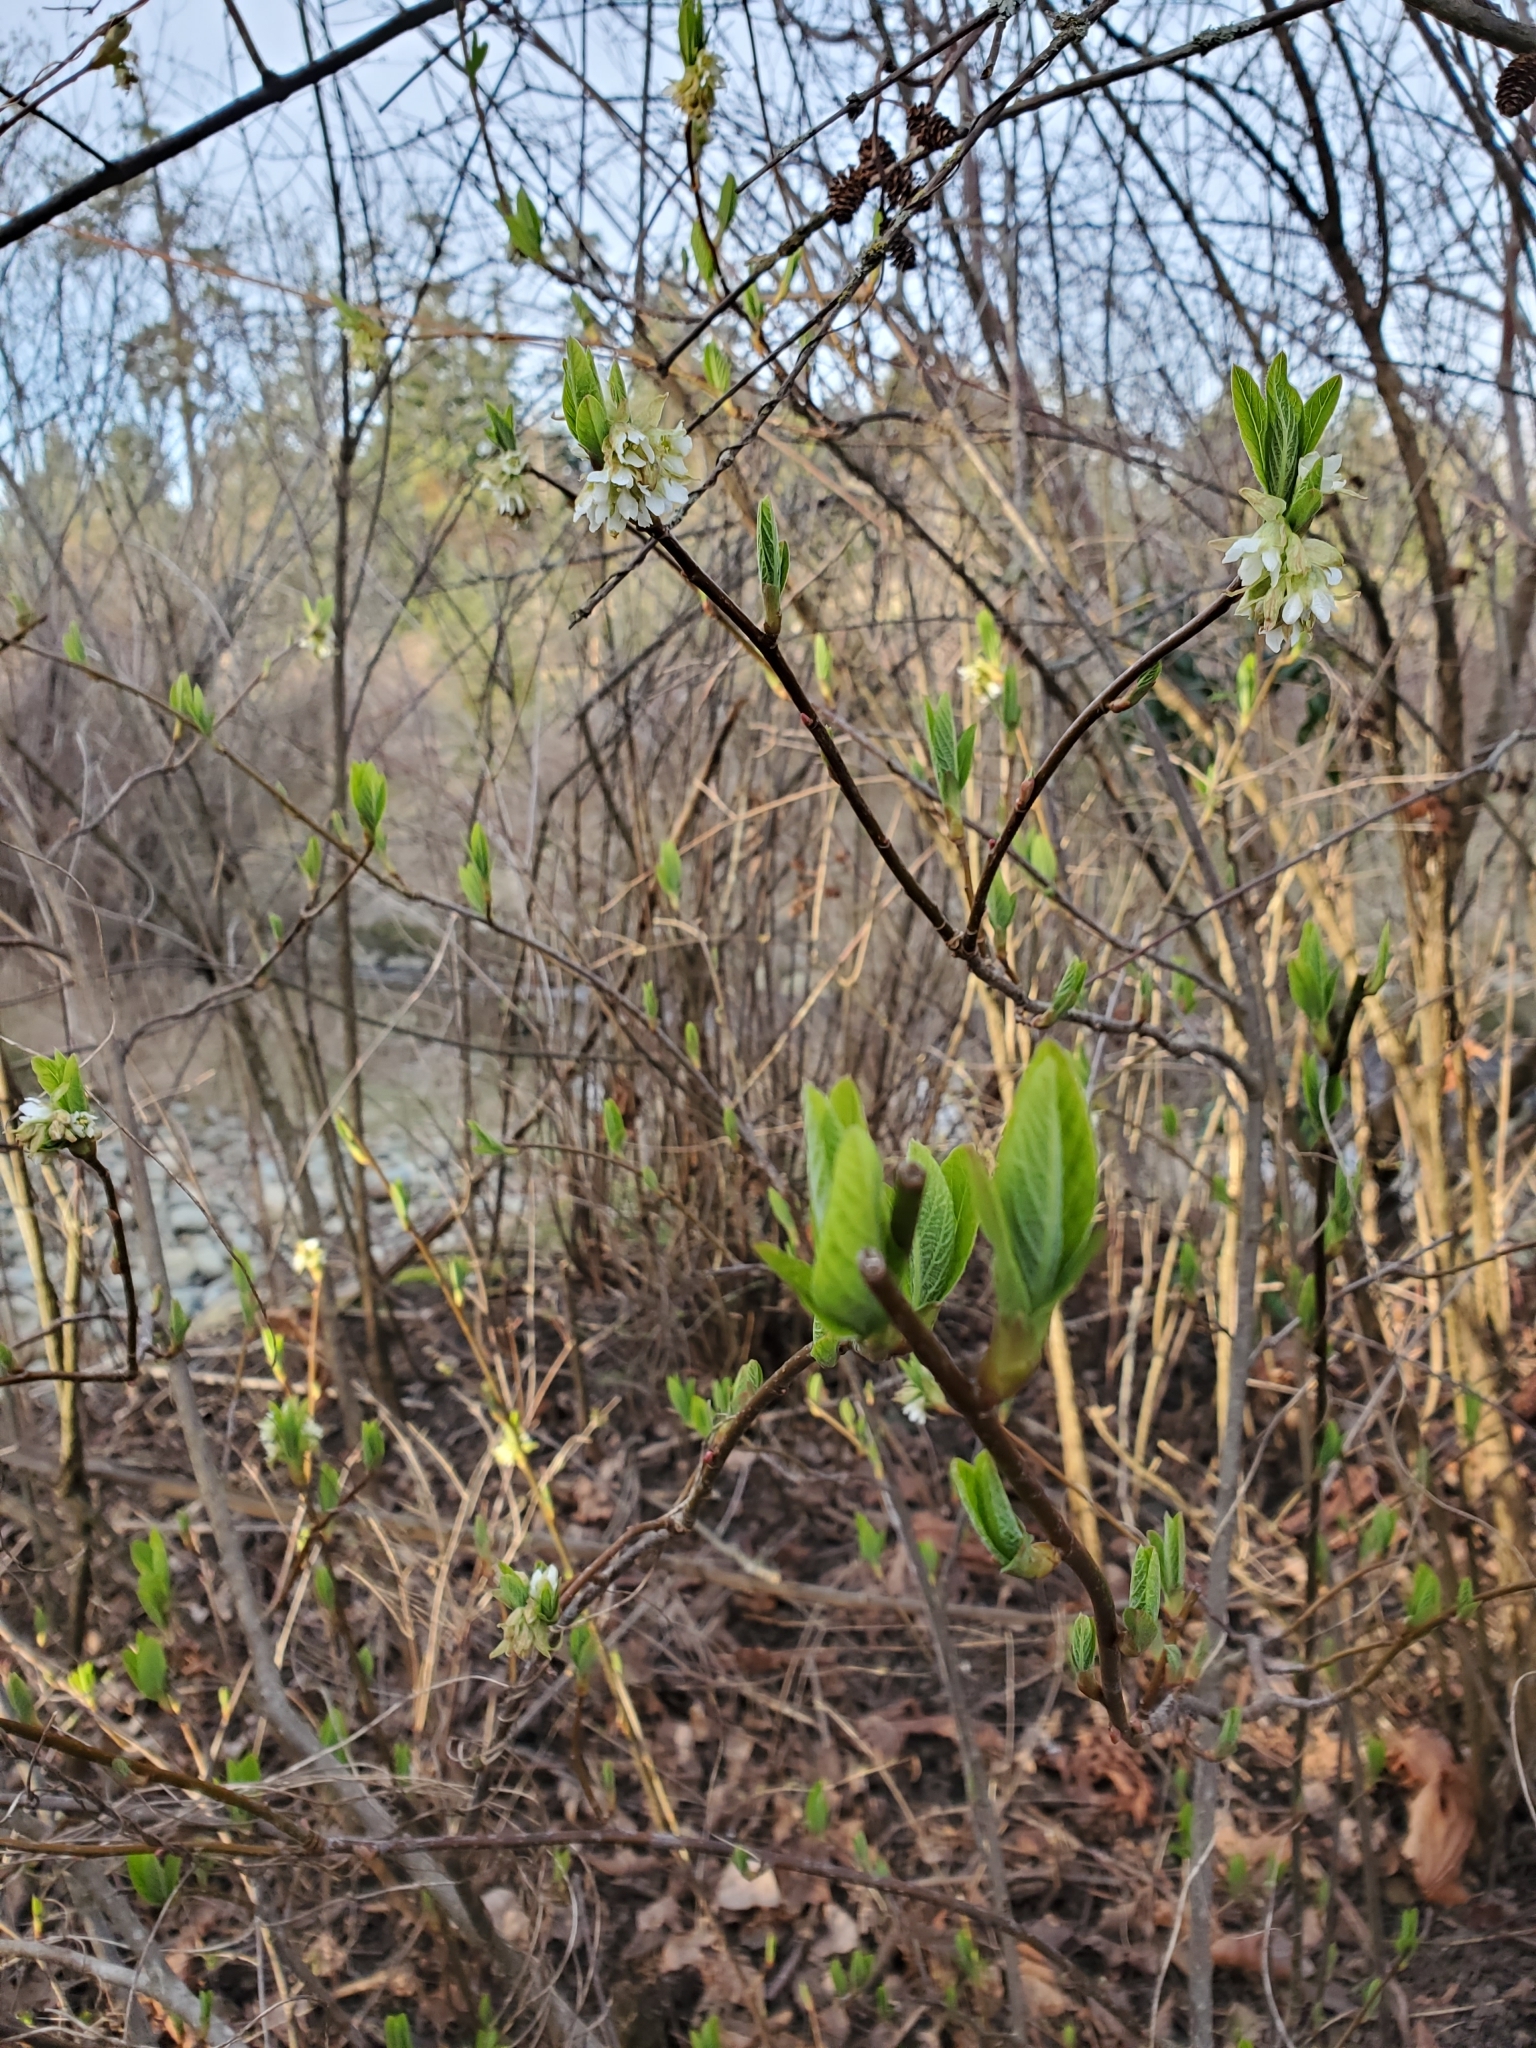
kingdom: Plantae
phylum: Tracheophyta
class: Magnoliopsida
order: Rosales
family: Rosaceae
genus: Oemleria
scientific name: Oemleria cerasiformis
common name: Osoberry
